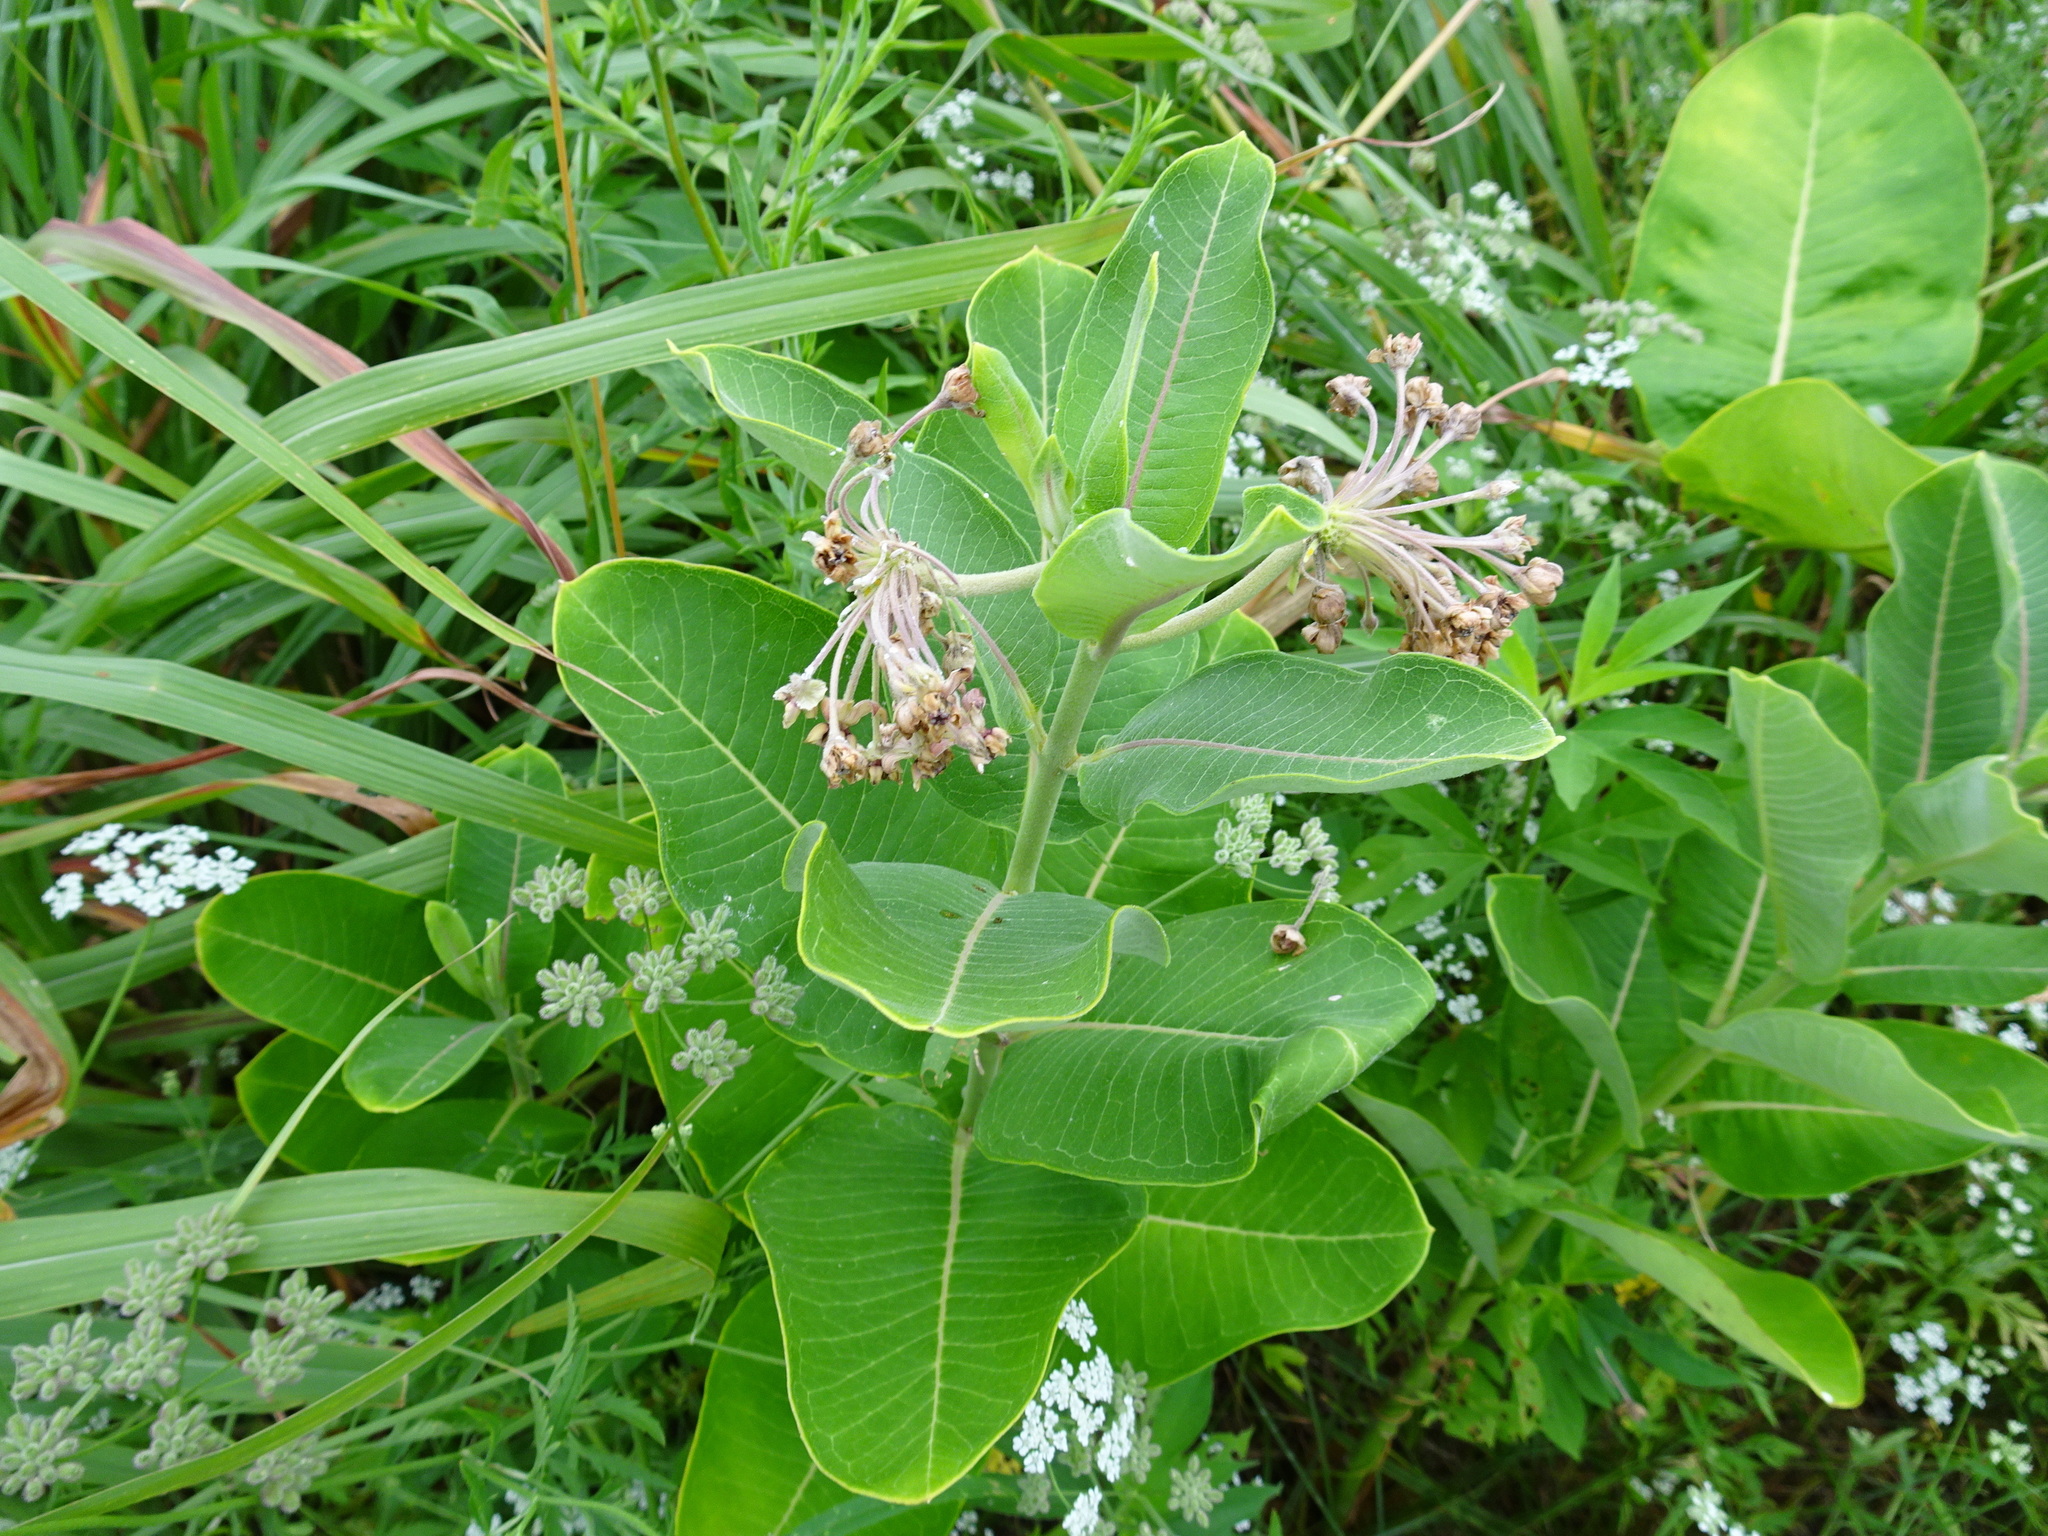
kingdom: Plantae
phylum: Tracheophyta
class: Magnoliopsida
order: Gentianales
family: Apocynaceae
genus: Asclepias
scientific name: Asclepias syriaca
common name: Common milkweed
